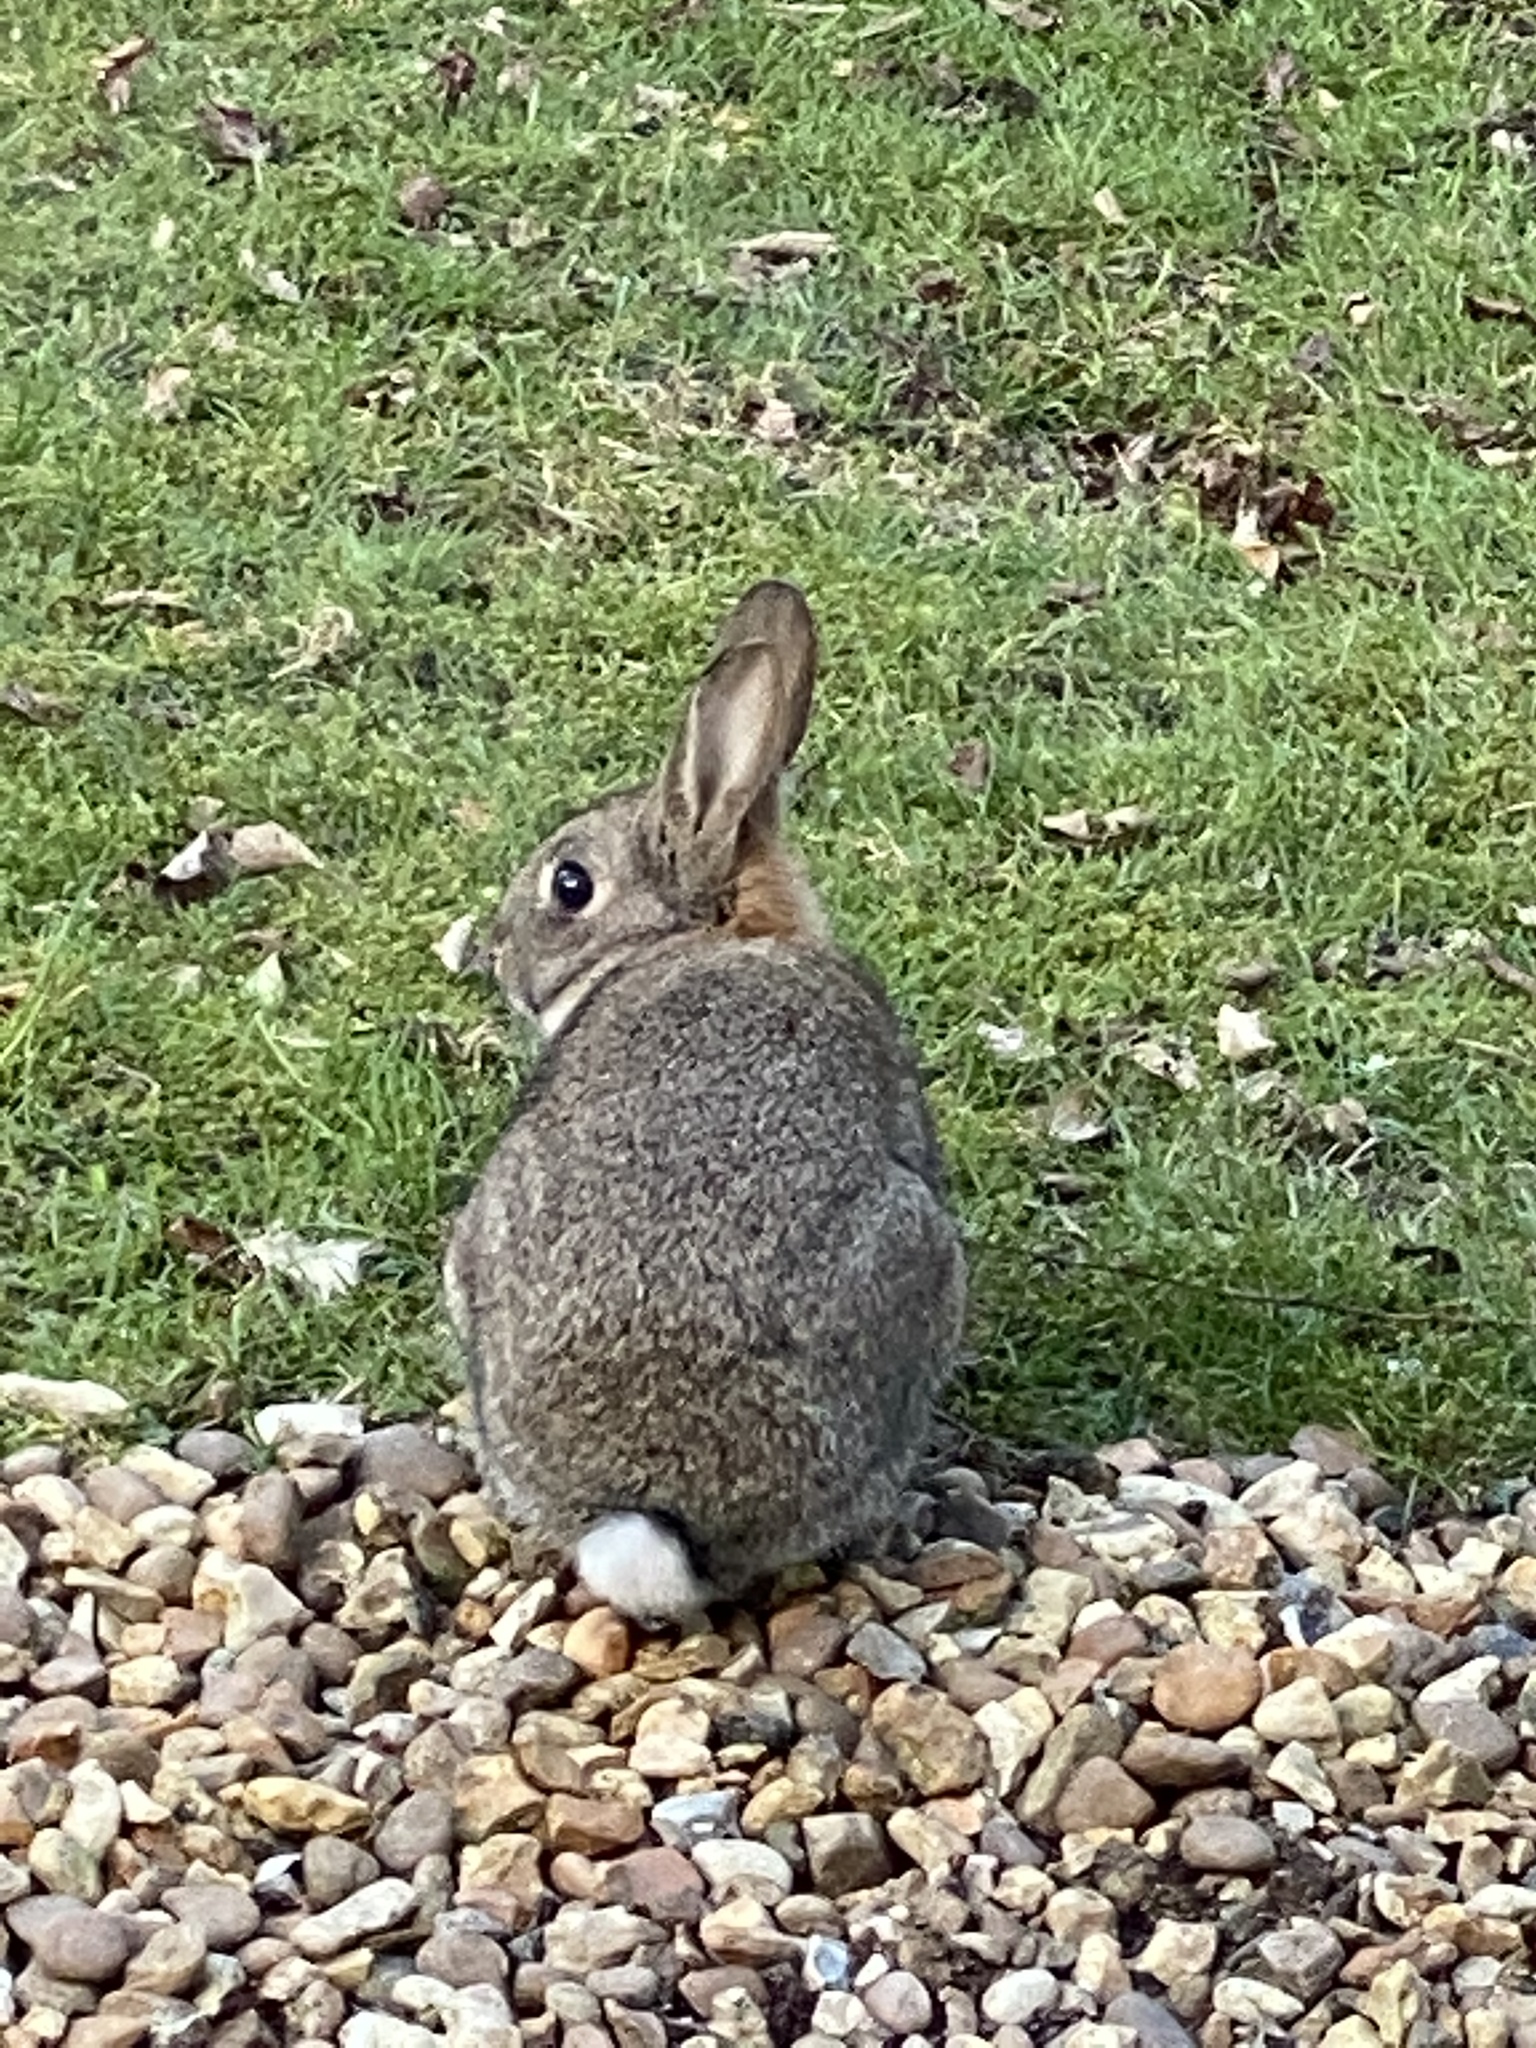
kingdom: Animalia
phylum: Chordata
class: Mammalia
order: Lagomorpha
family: Leporidae
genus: Oryctolagus
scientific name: Oryctolagus cuniculus
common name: European rabbit
